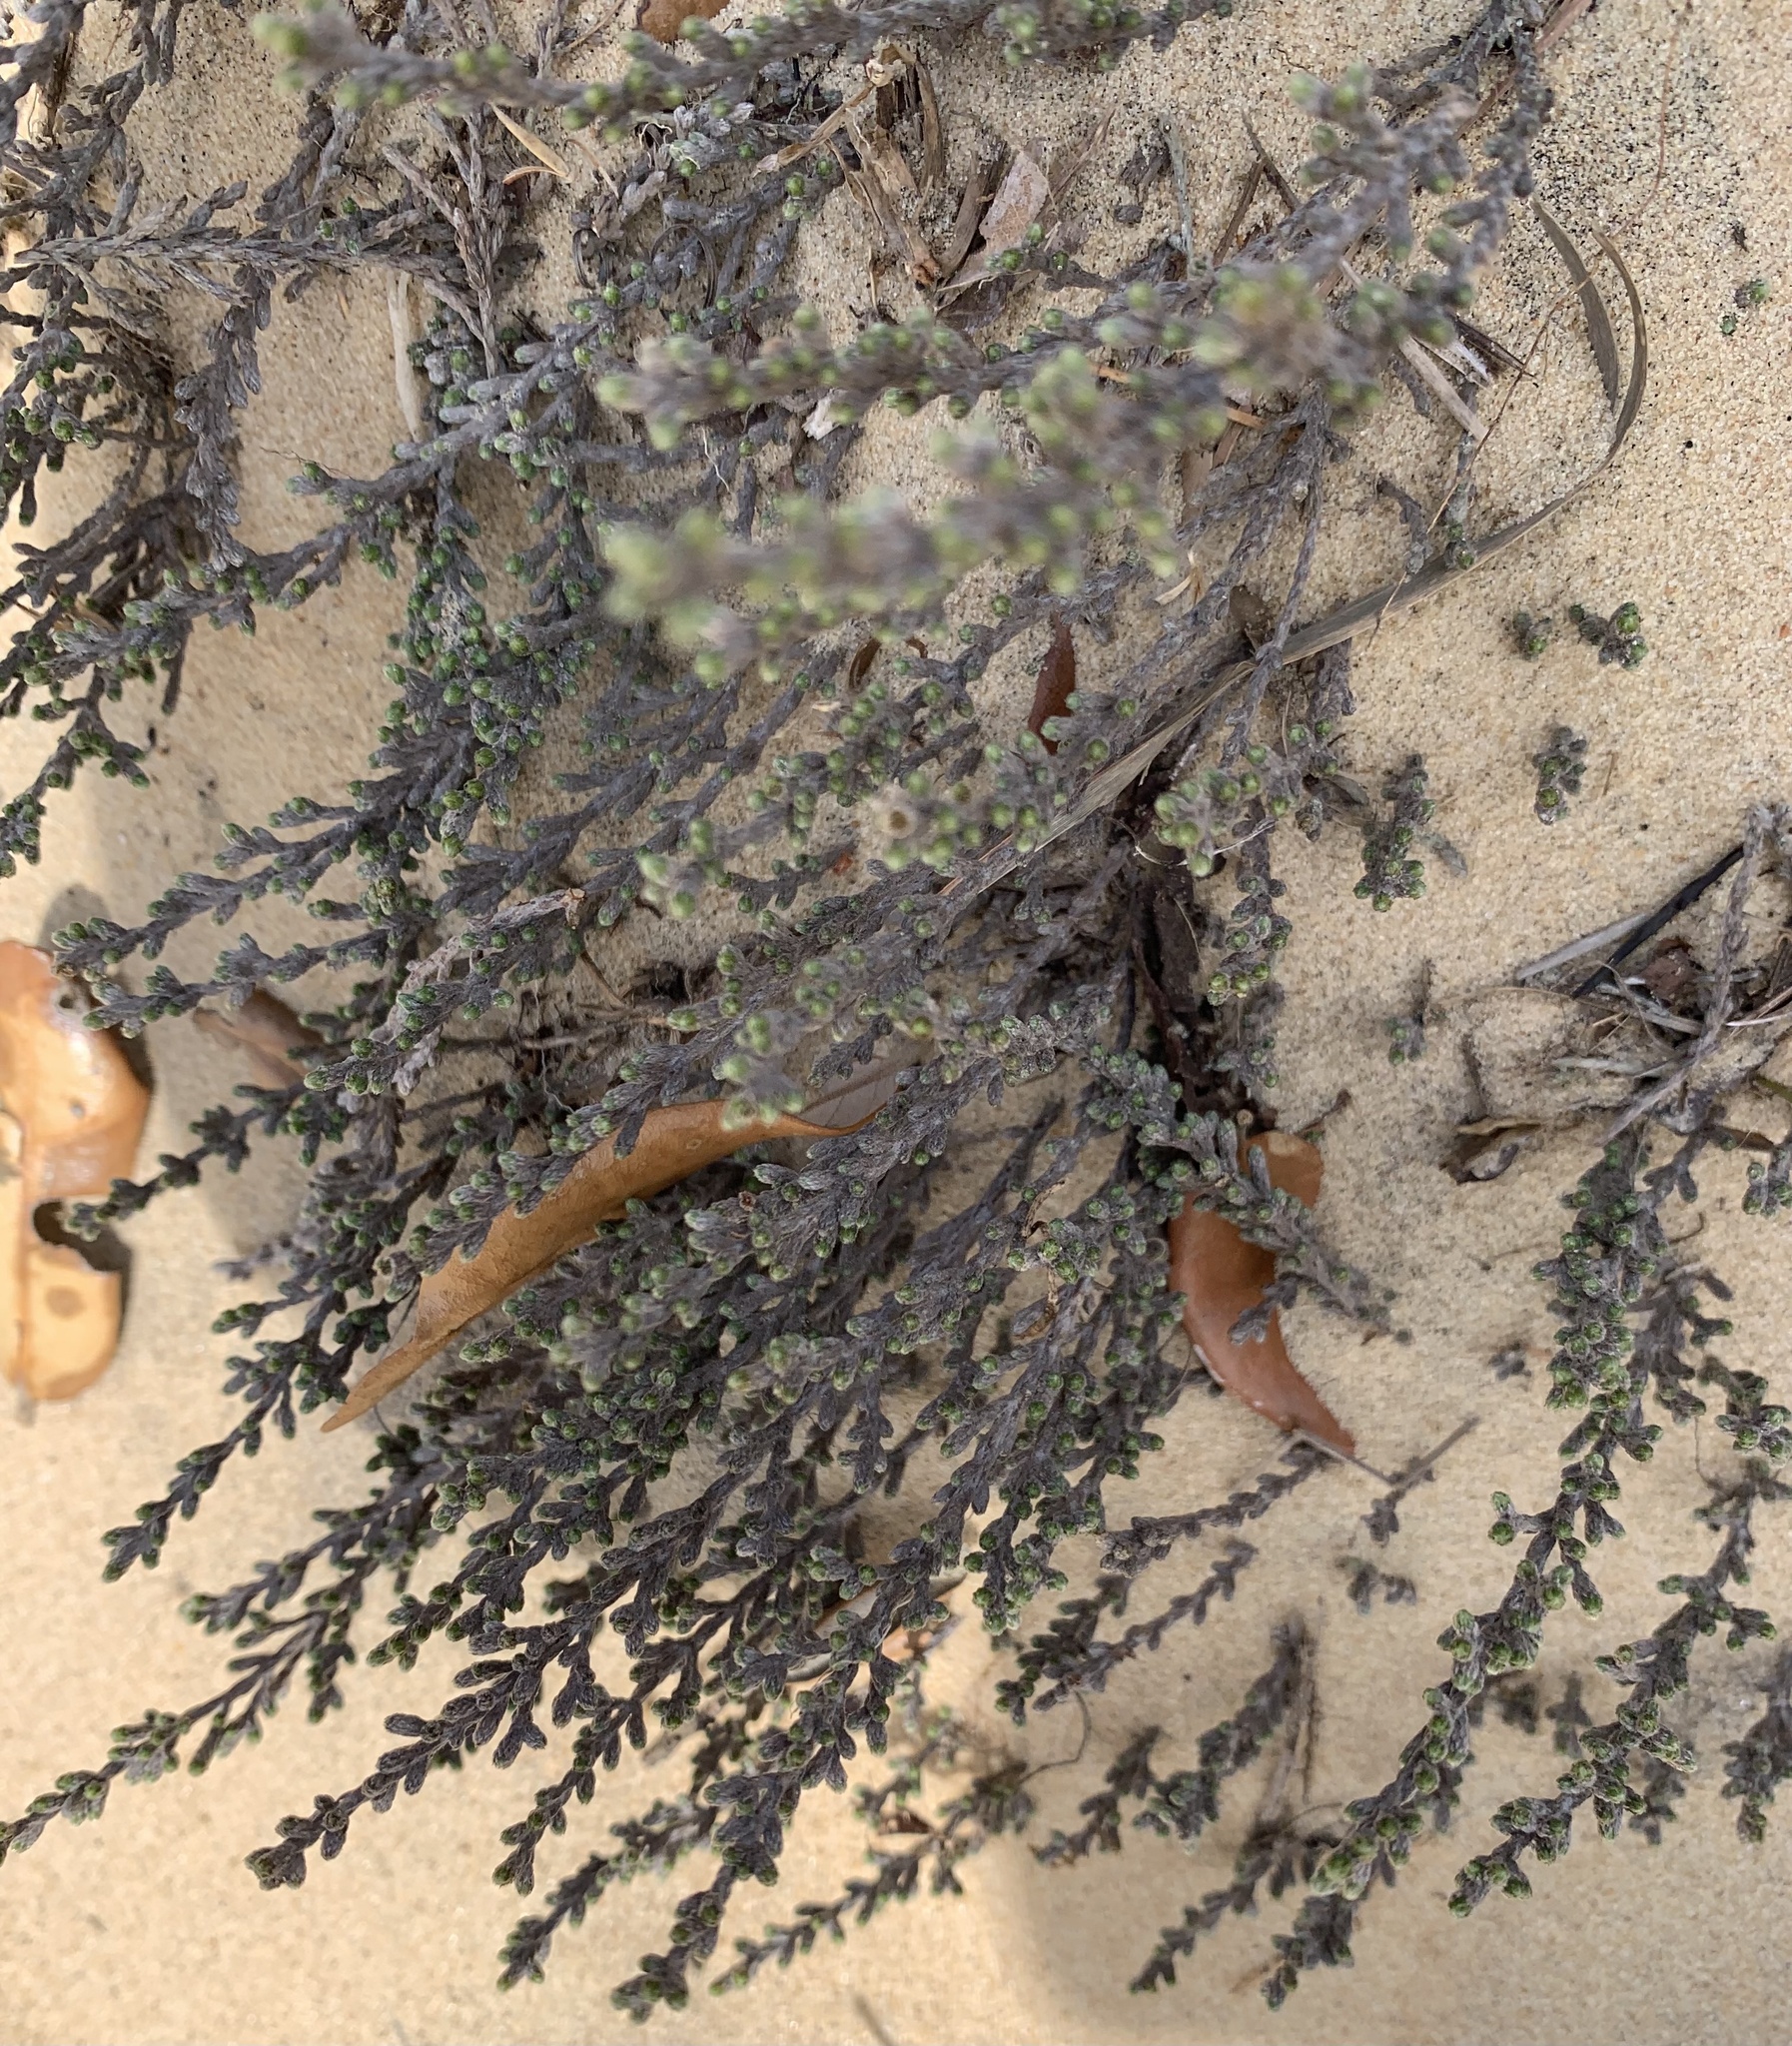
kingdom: Plantae
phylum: Tracheophyta
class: Magnoliopsida
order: Malvales
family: Cistaceae
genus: Hudsonia
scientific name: Hudsonia tomentosa
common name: Beach-heath
